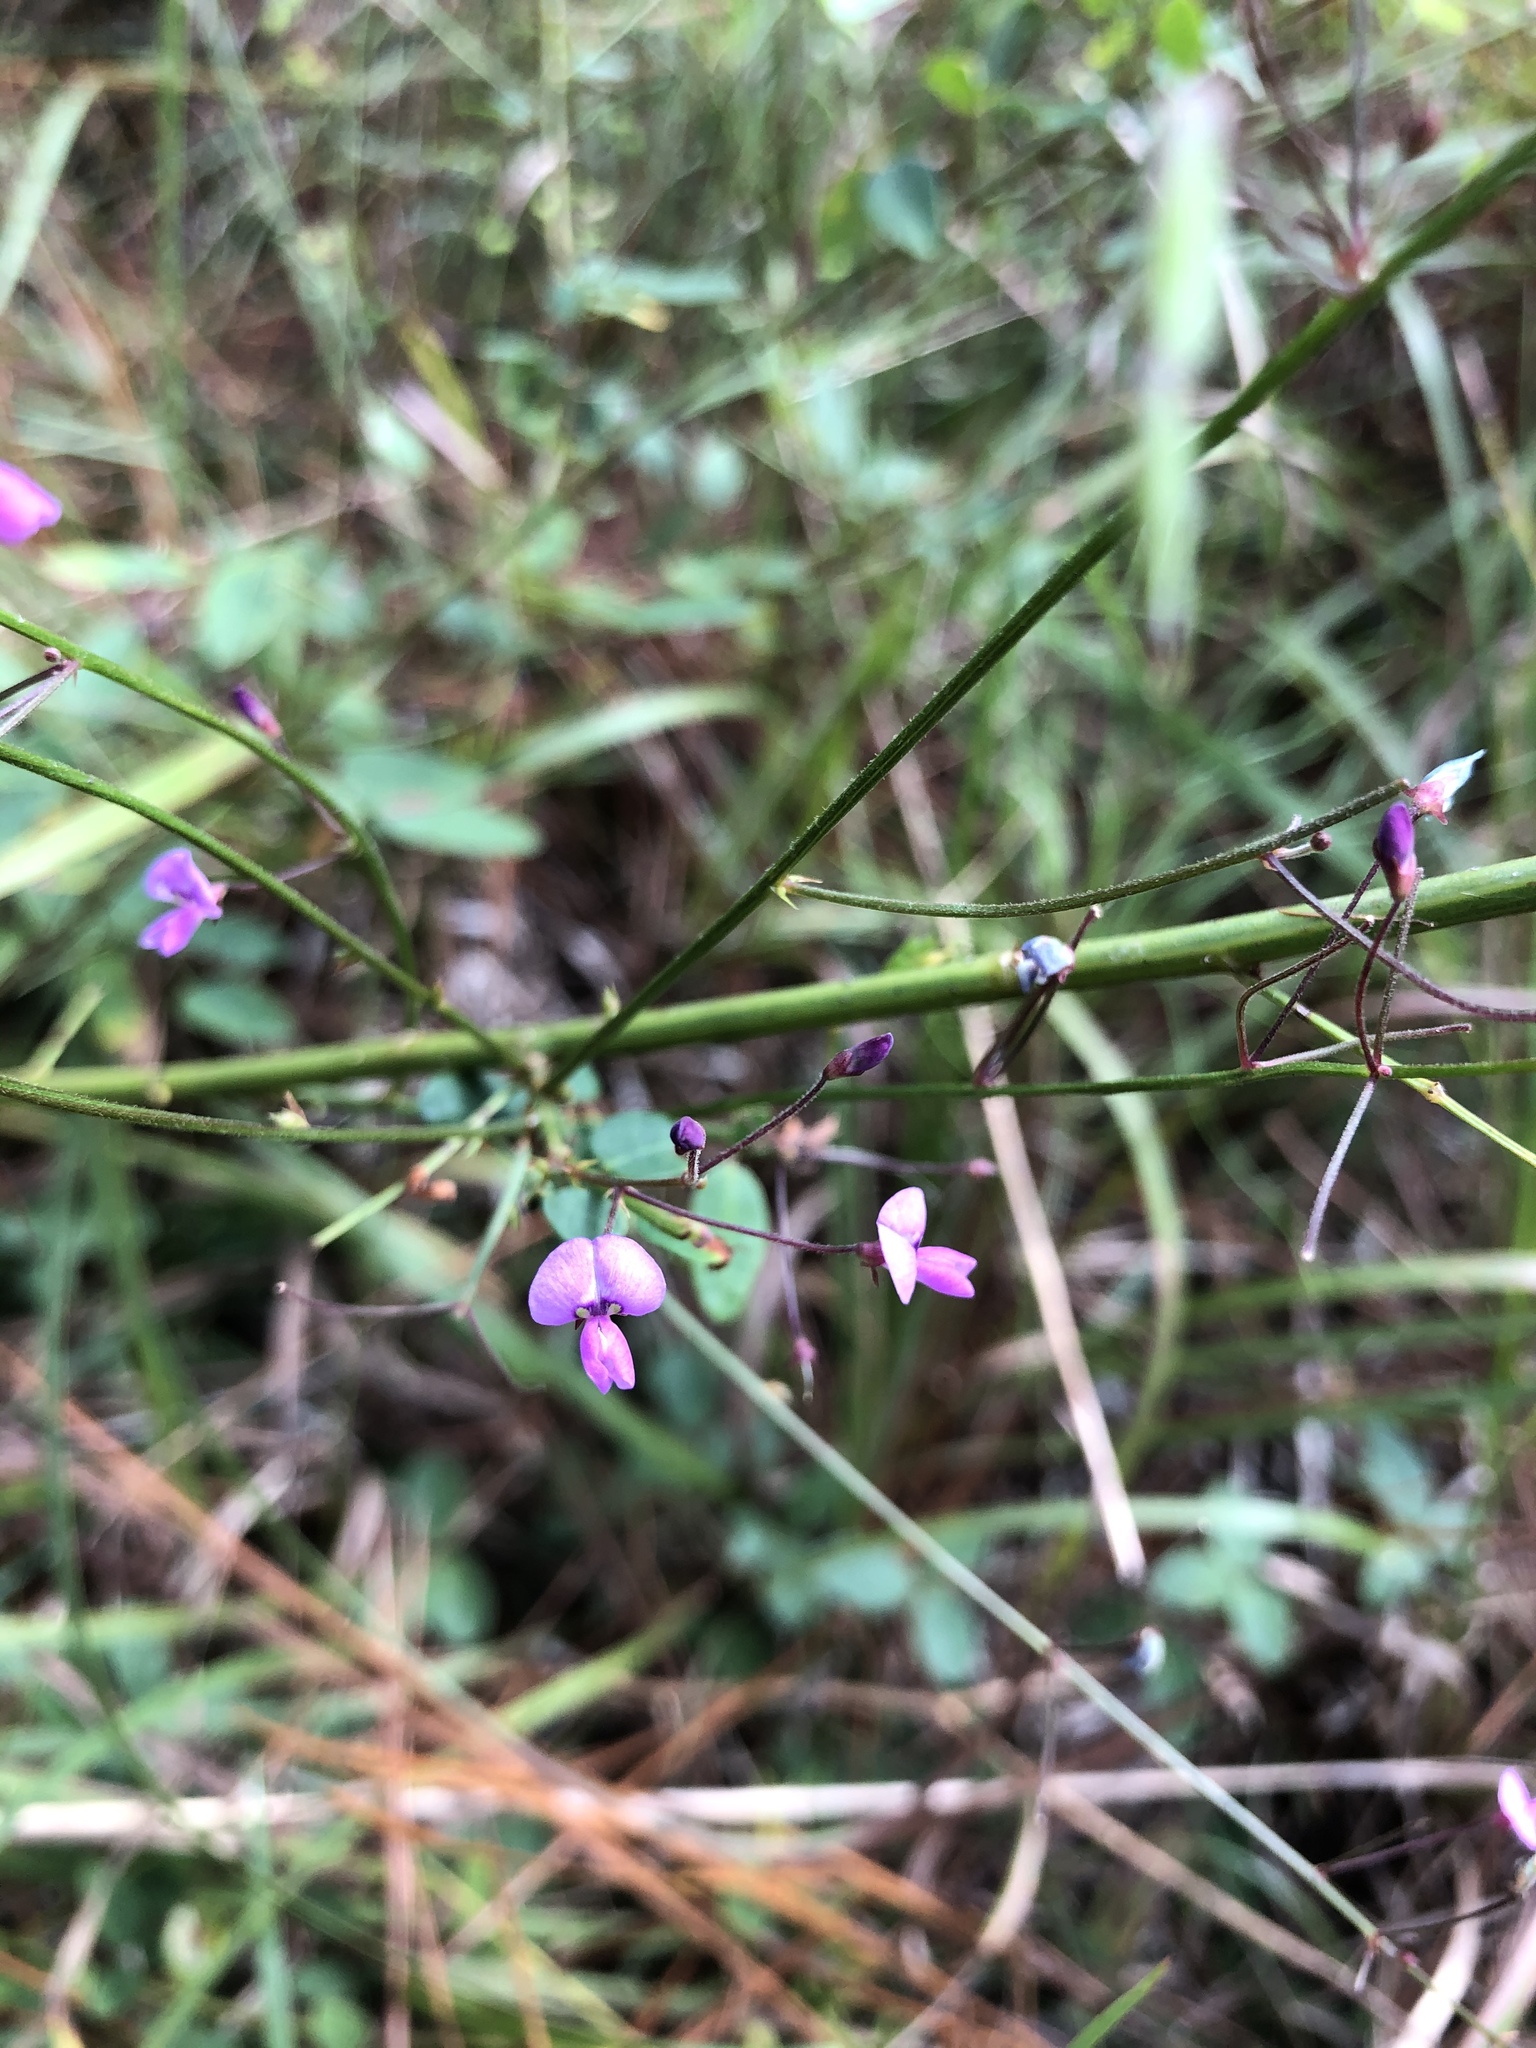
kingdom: Plantae
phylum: Tracheophyta
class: Magnoliopsida
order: Fabales
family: Fabaceae
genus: Desmodium
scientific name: Desmodium marilandicum
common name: Maryland tick-trefoil
